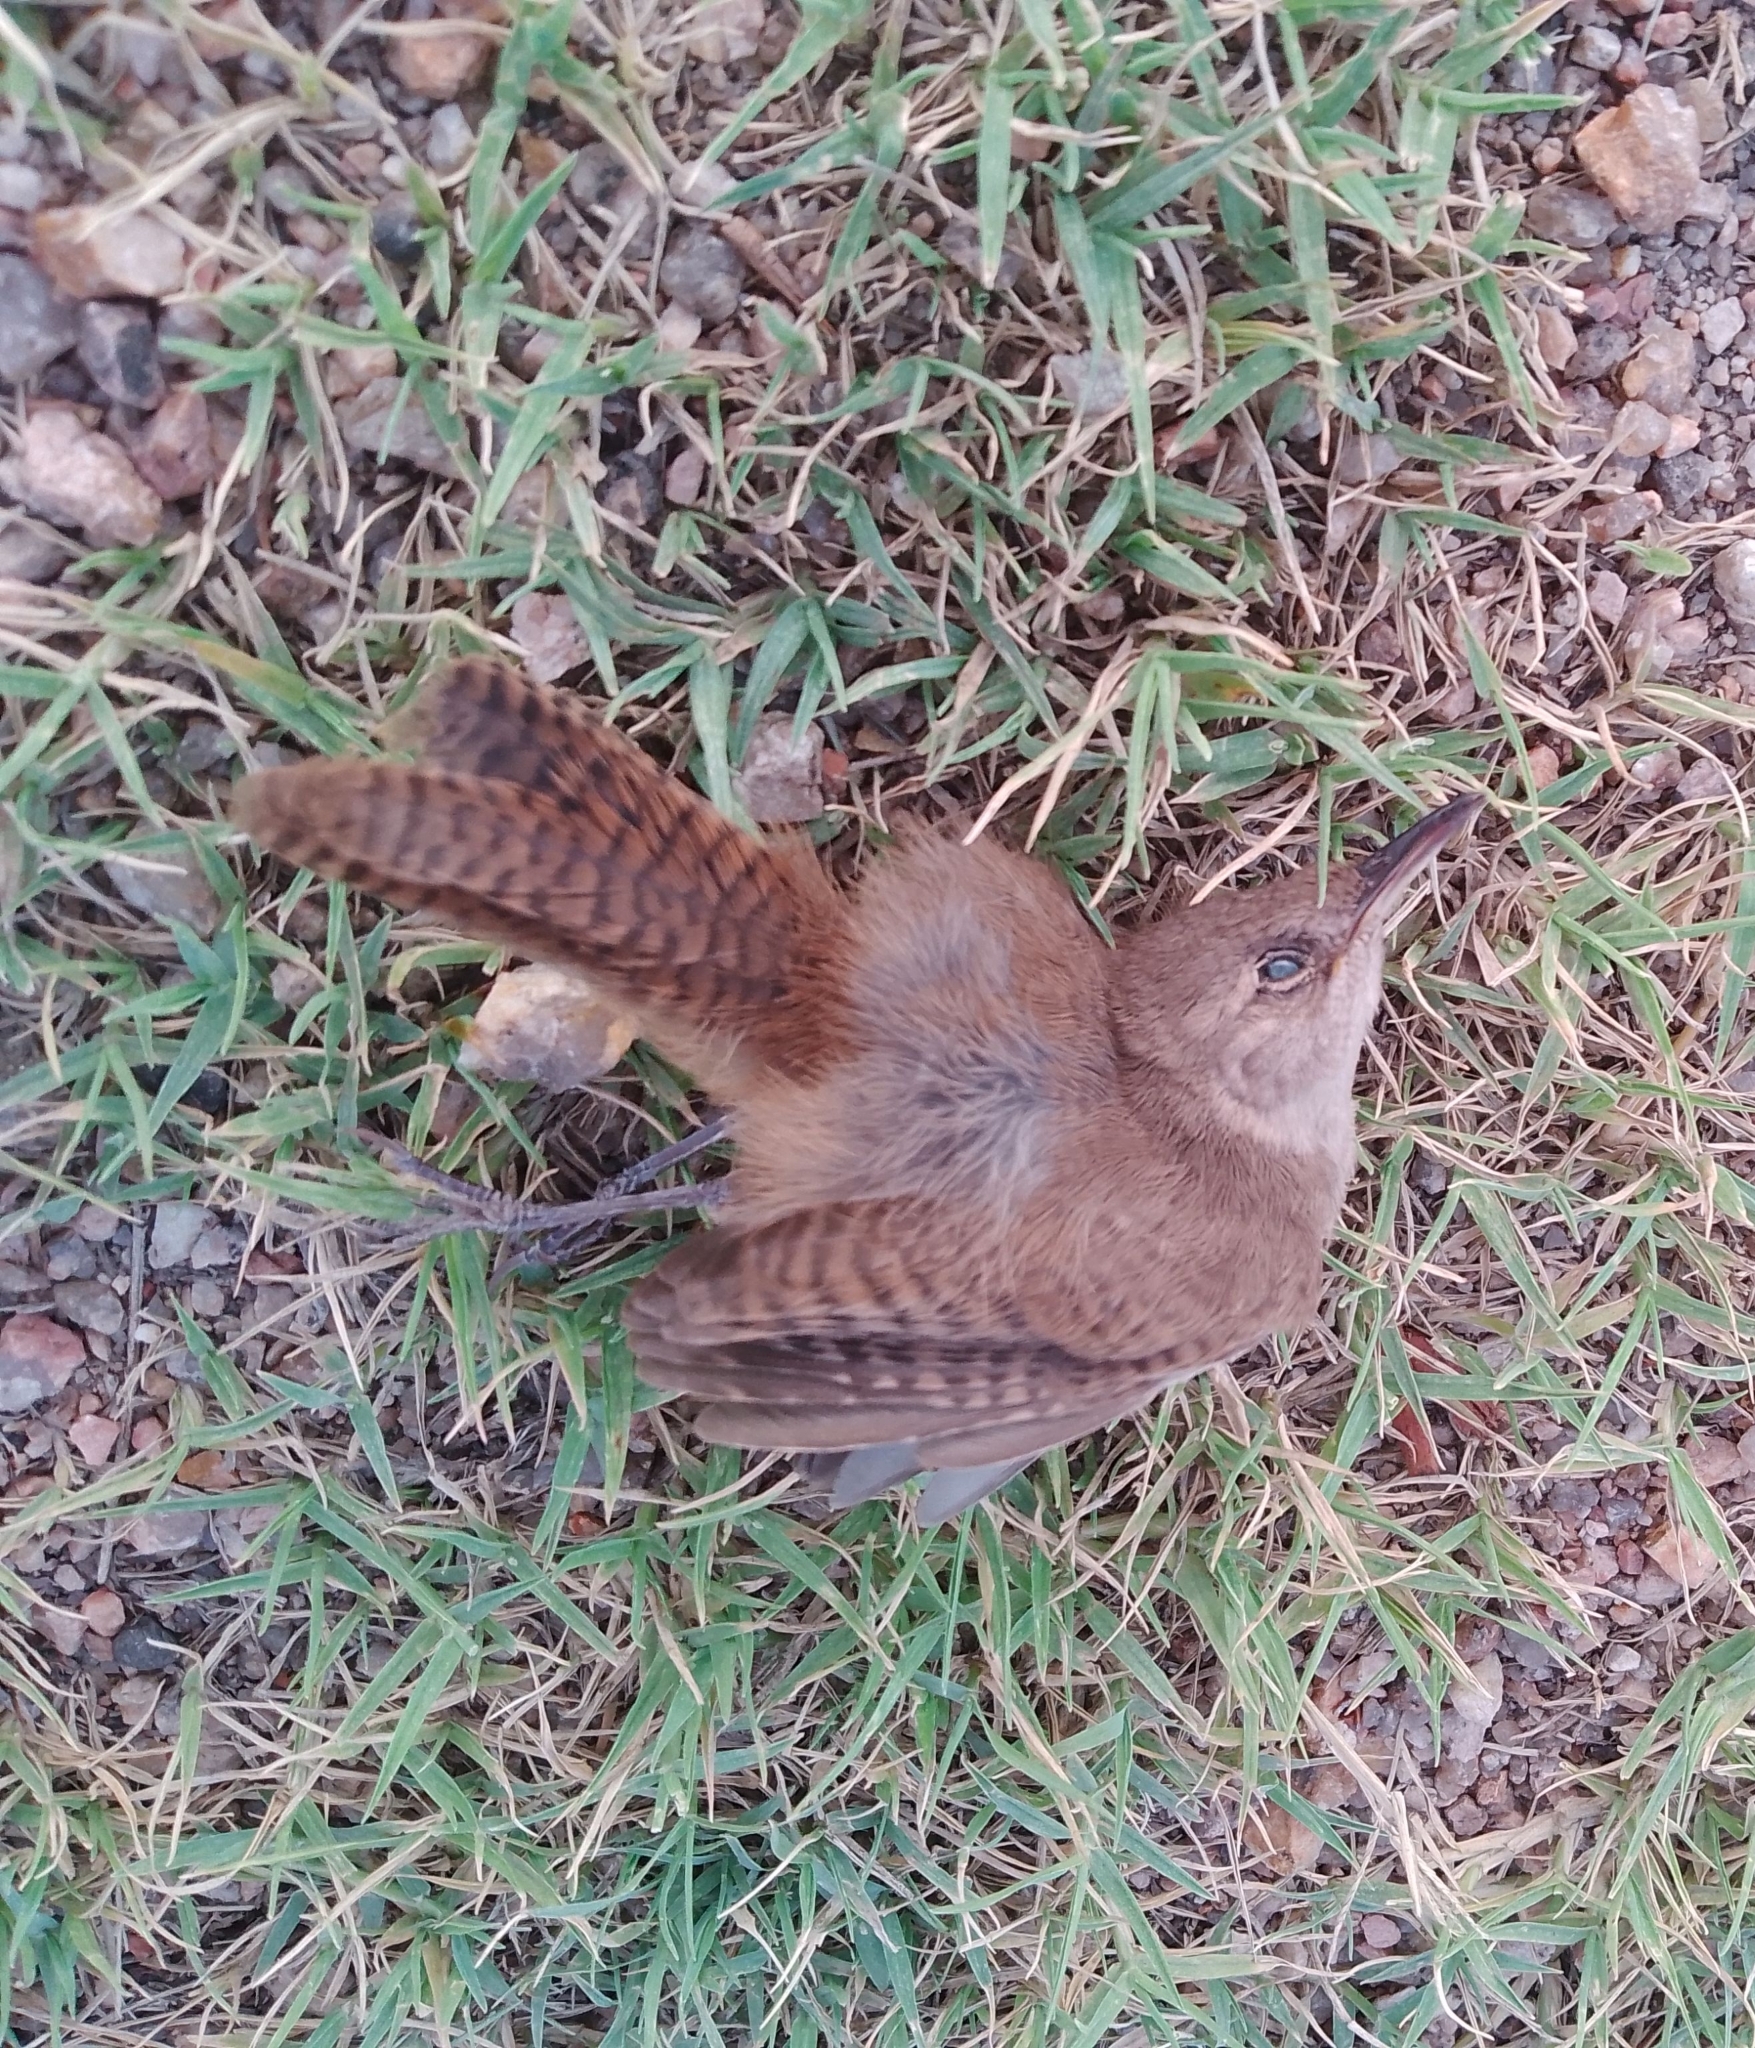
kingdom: Animalia
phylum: Chordata
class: Aves
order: Passeriformes
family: Troglodytidae
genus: Troglodytes
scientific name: Troglodytes aedon
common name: House wren
